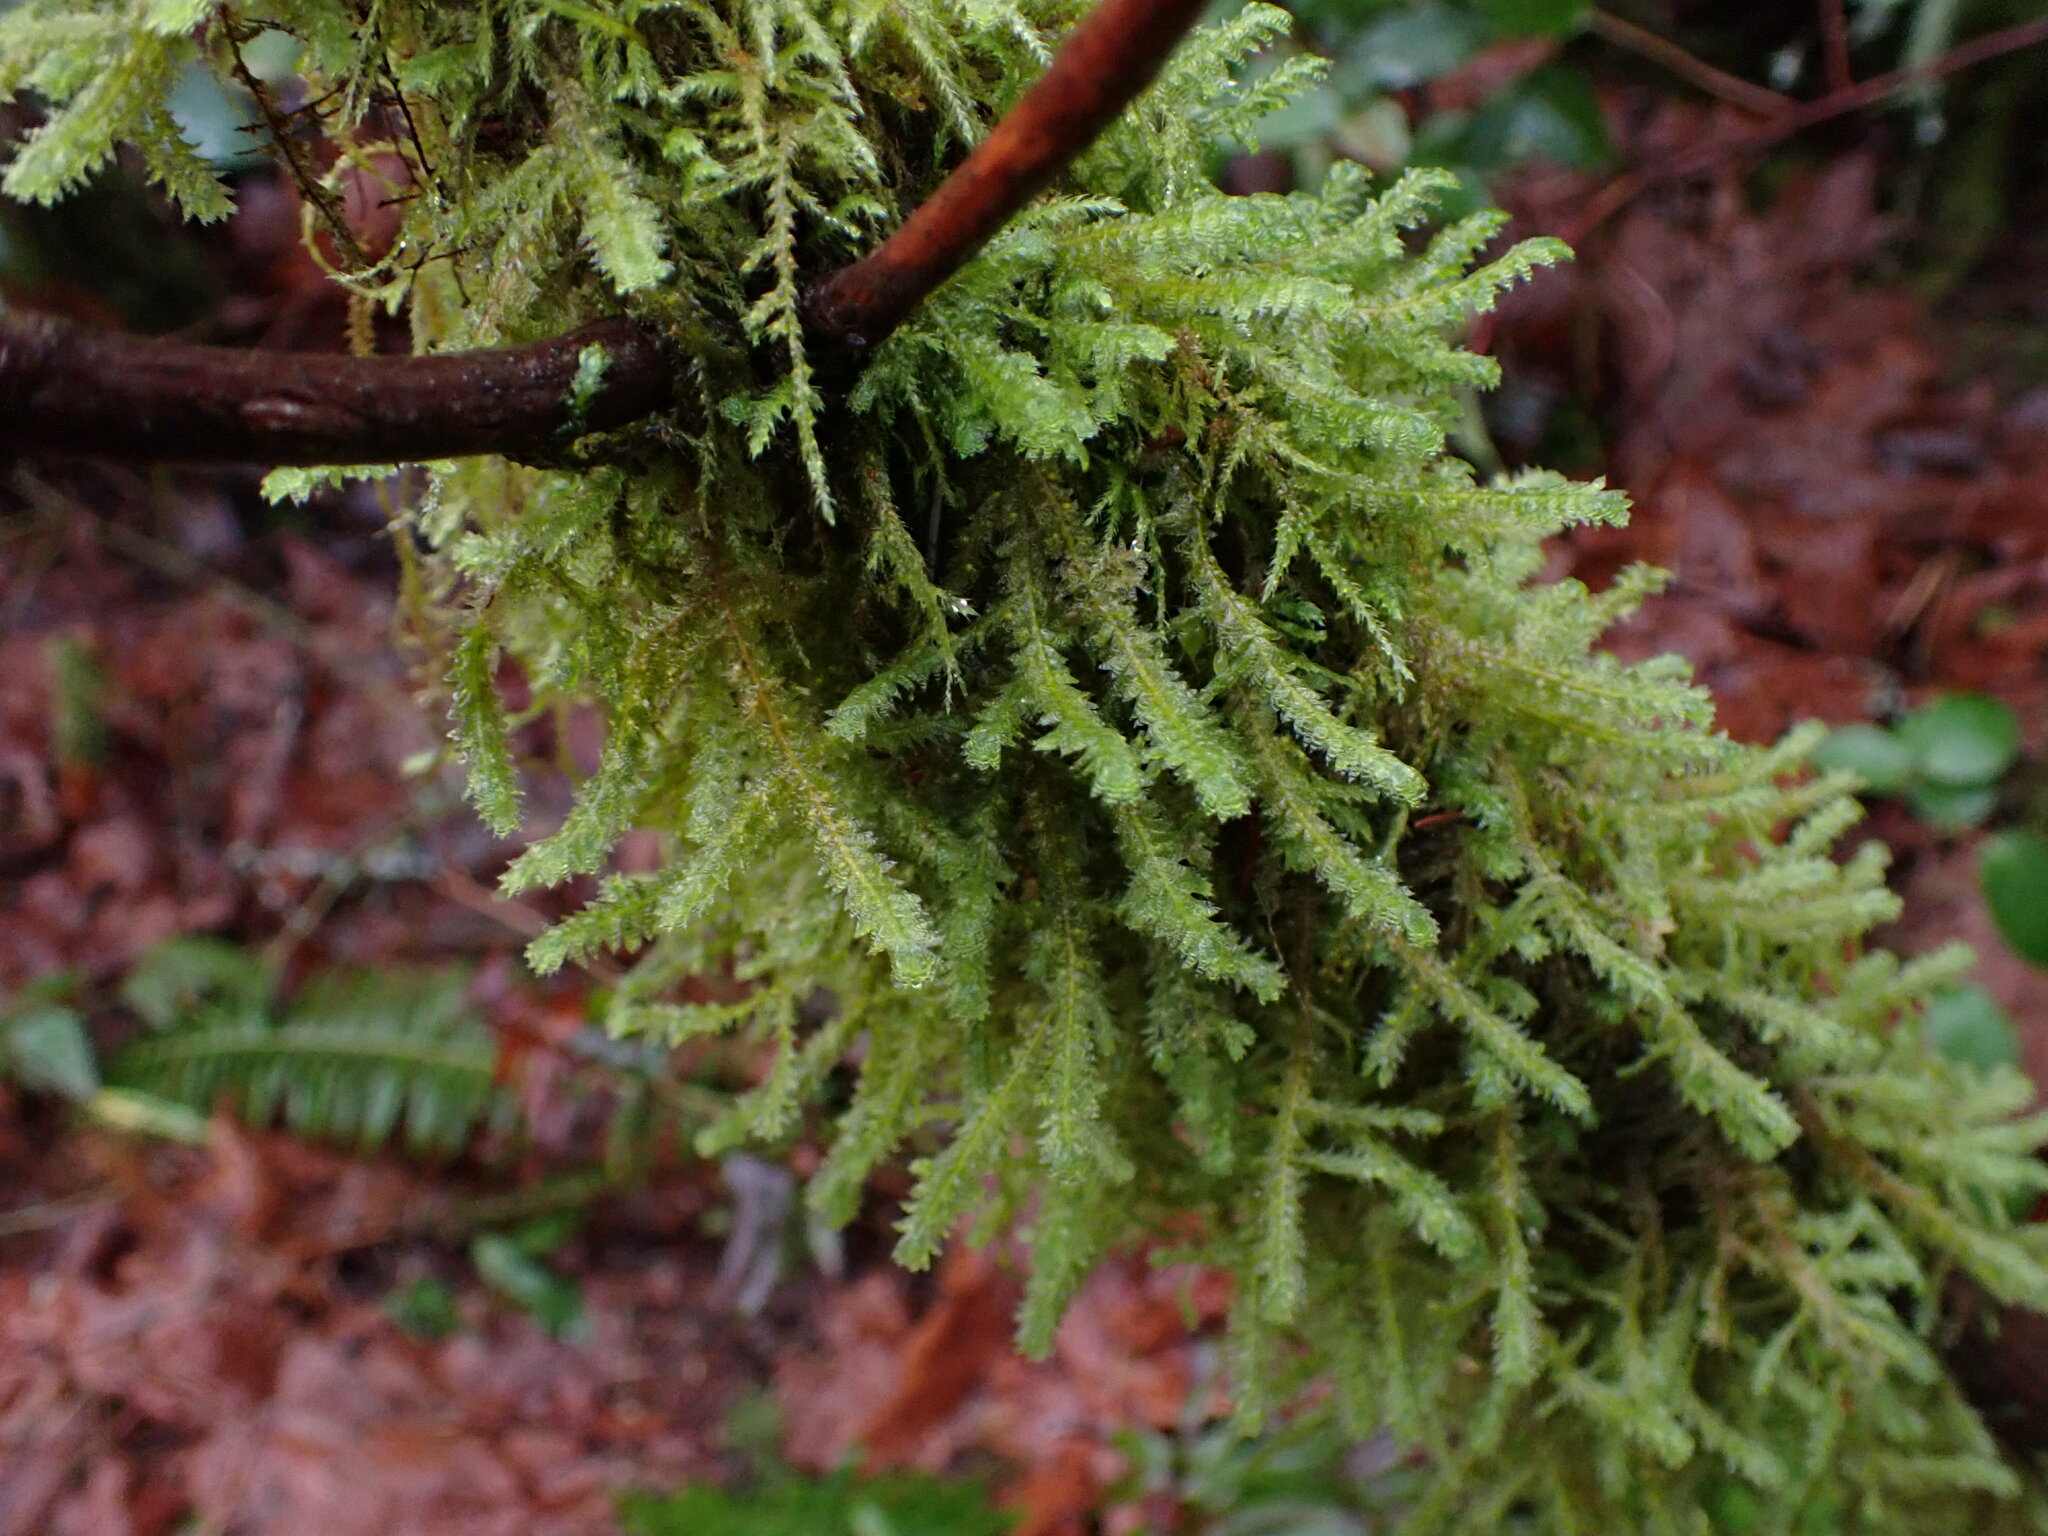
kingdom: Plantae
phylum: Bryophyta
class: Bryopsida
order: Hypnales
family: Neckeraceae
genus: Neckera
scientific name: Neckera douglasii
